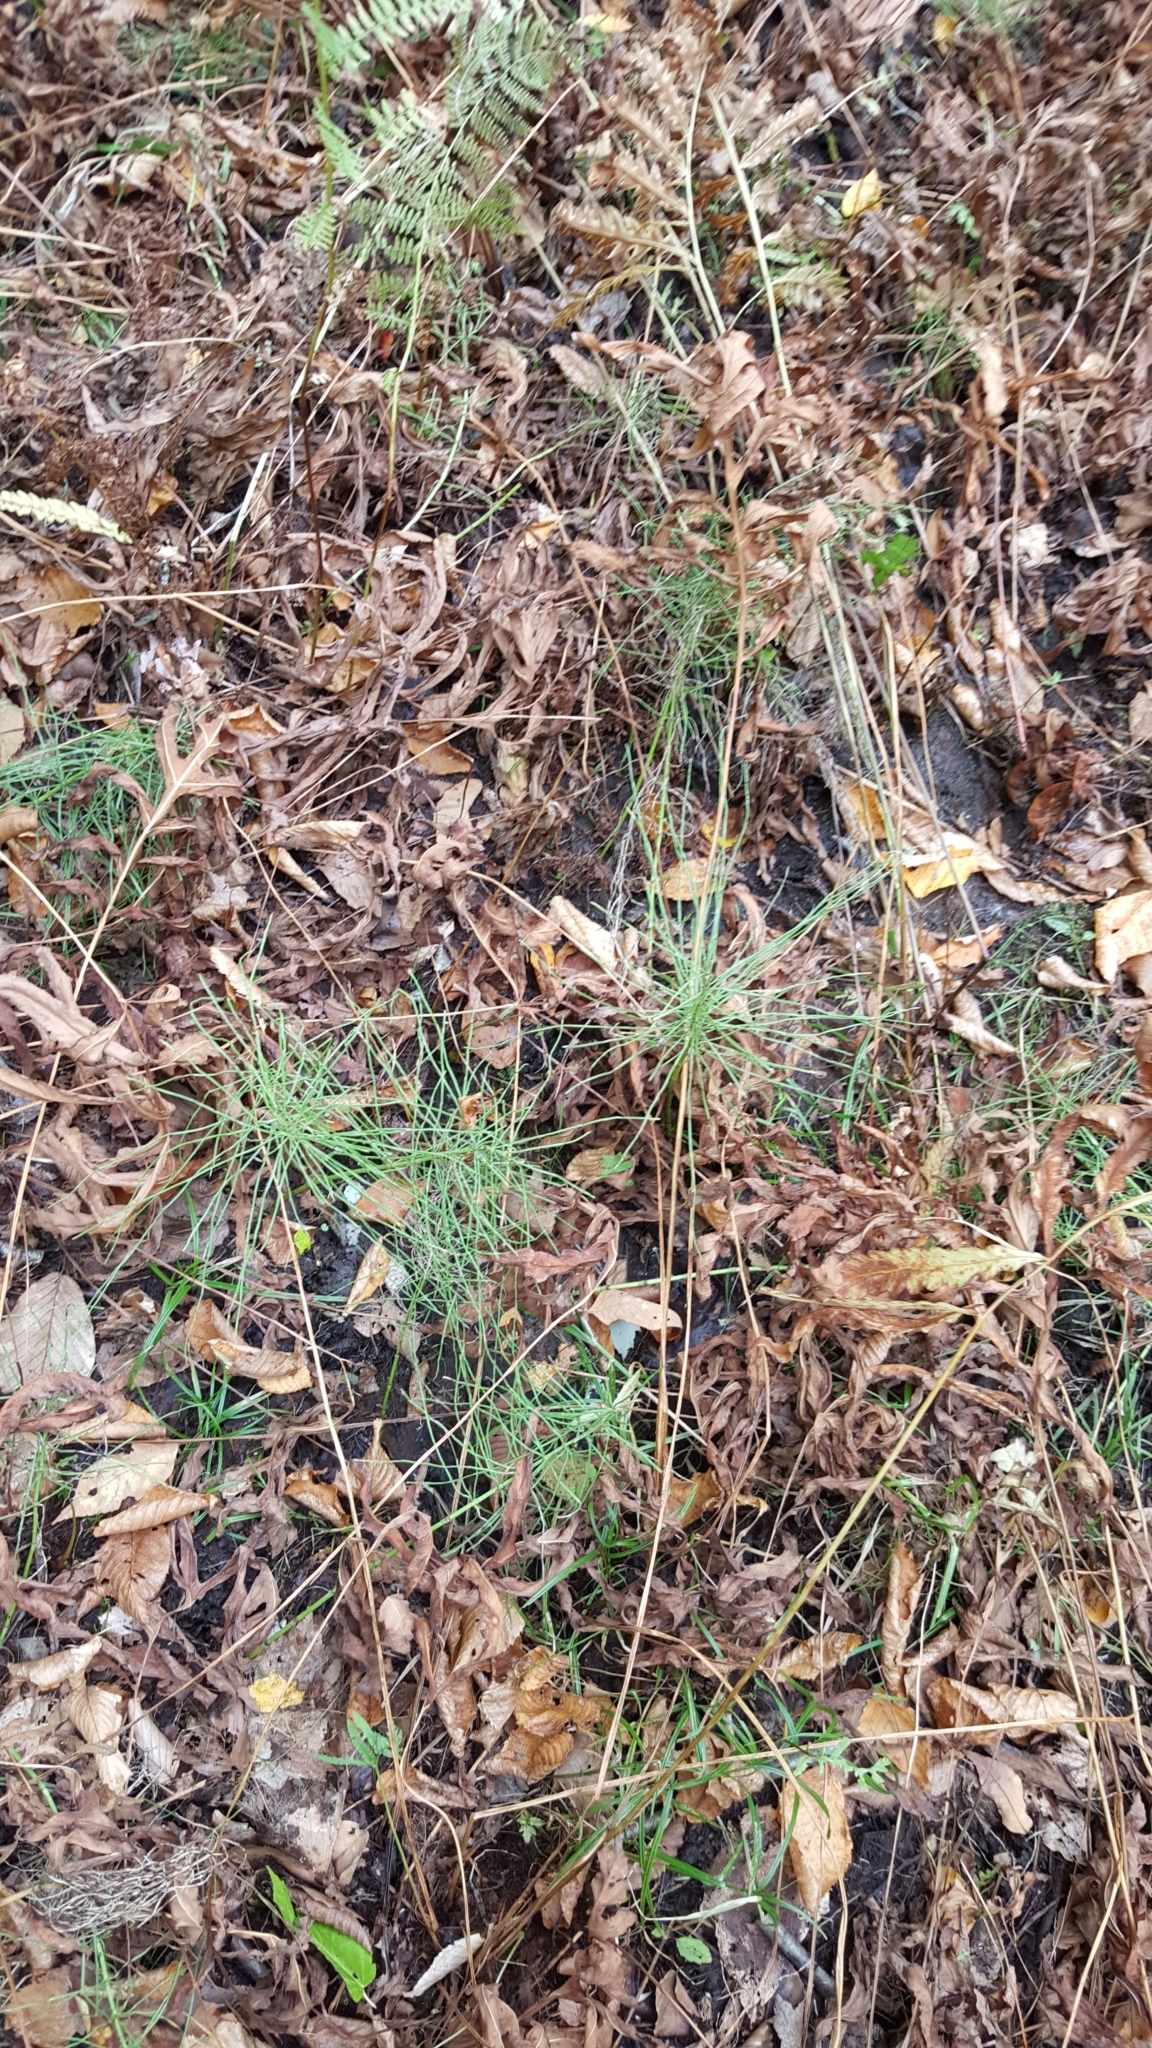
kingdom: Plantae
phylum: Tracheophyta
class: Polypodiopsida
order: Equisetales
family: Equisetaceae
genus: Equisetum
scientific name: Equisetum arvense
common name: Field horsetail
